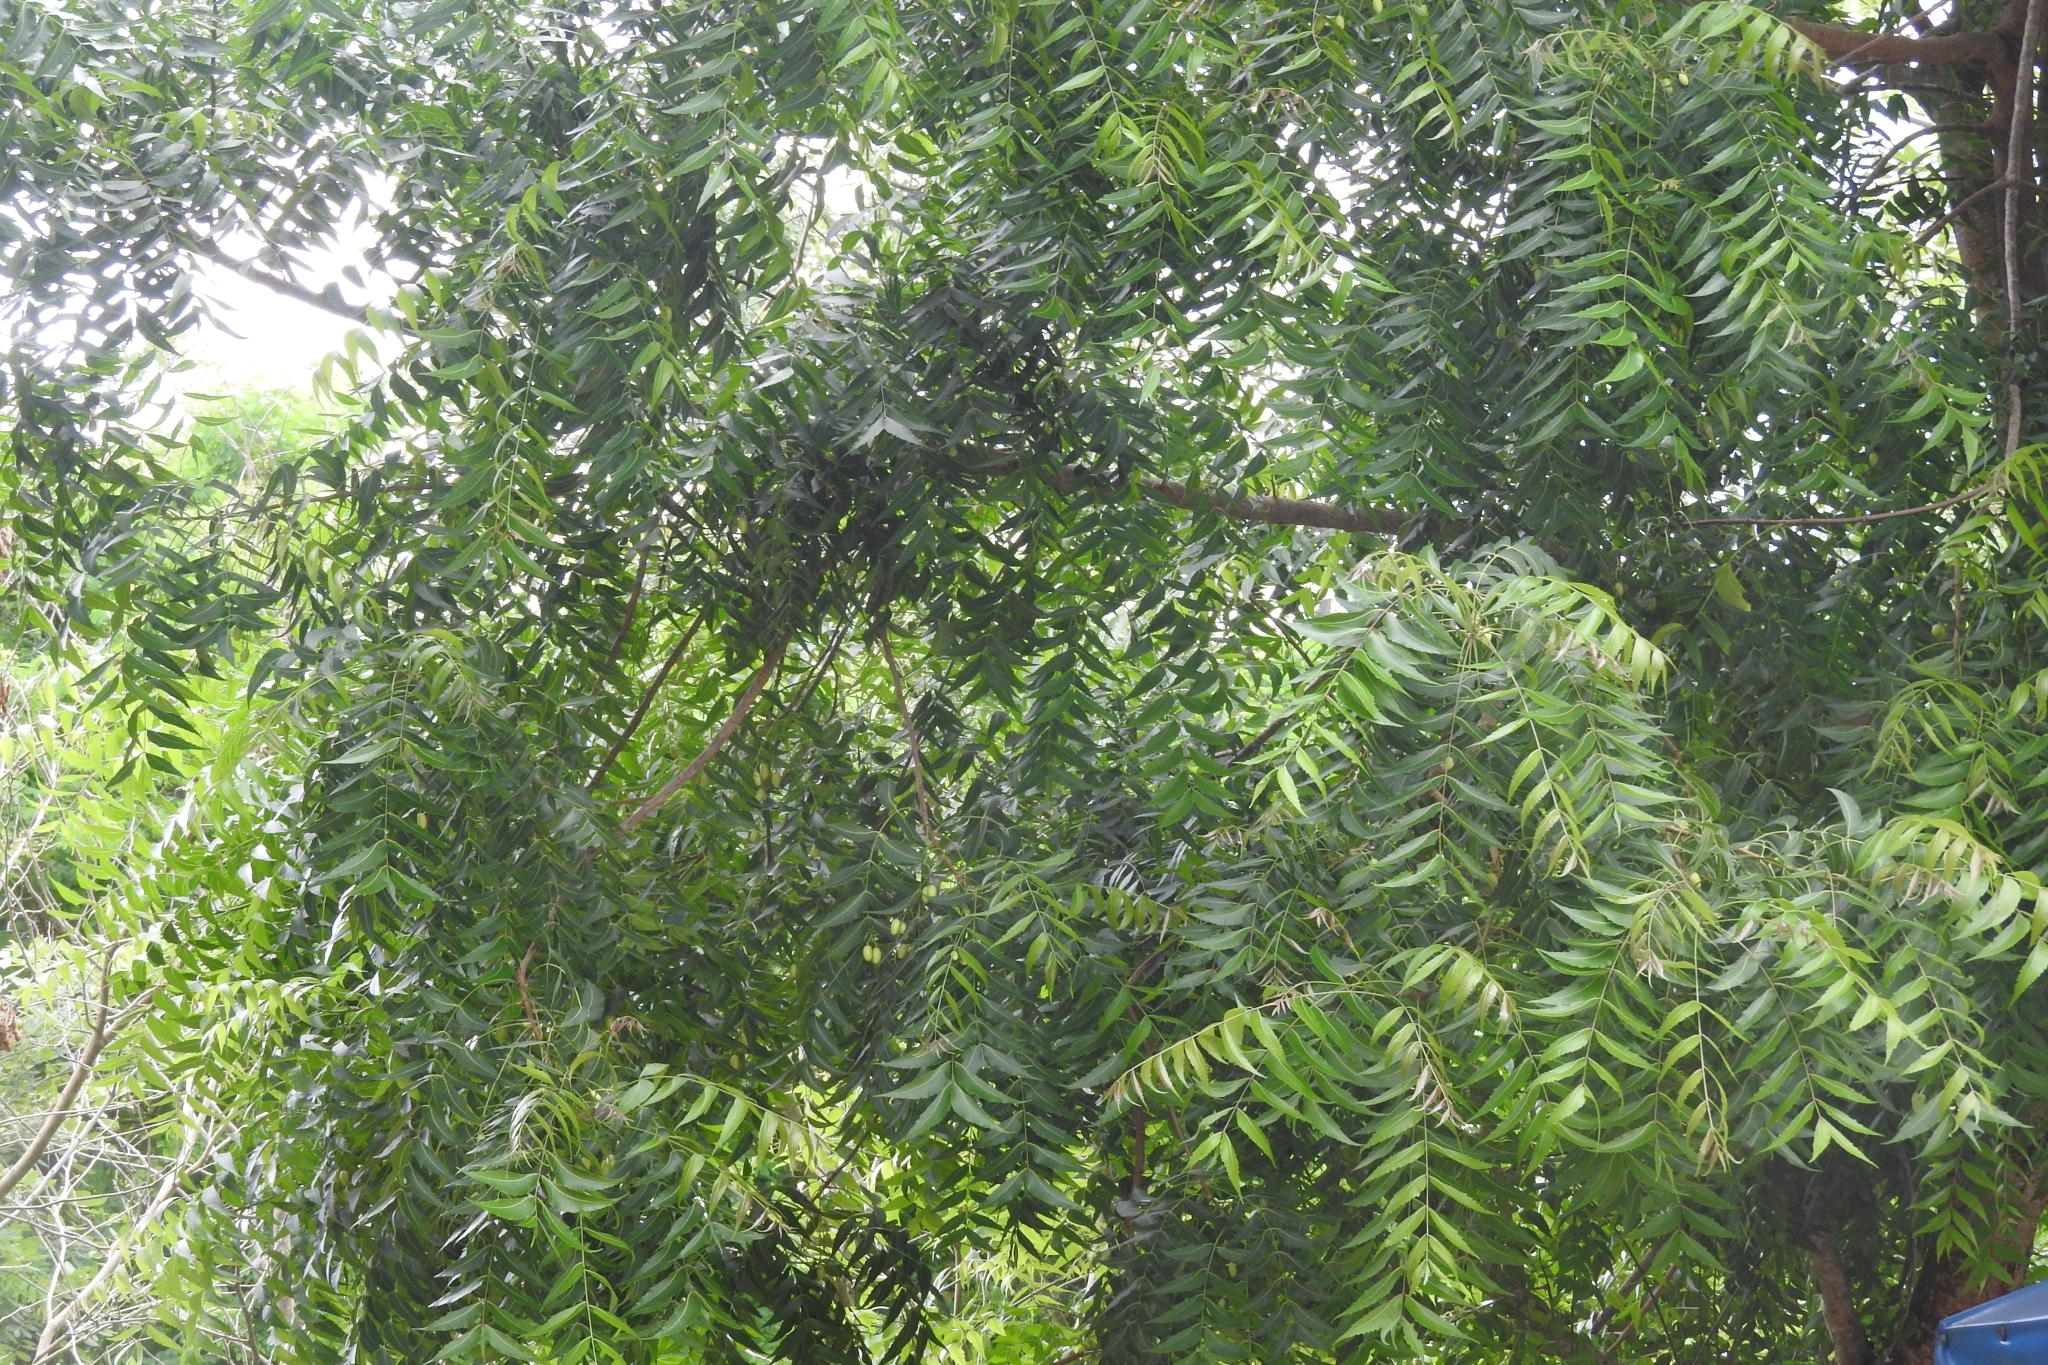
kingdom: Plantae
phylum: Tracheophyta
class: Magnoliopsida
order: Sapindales
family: Meliaceae
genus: Azadirachta
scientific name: Azadirachta indica
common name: Neem
